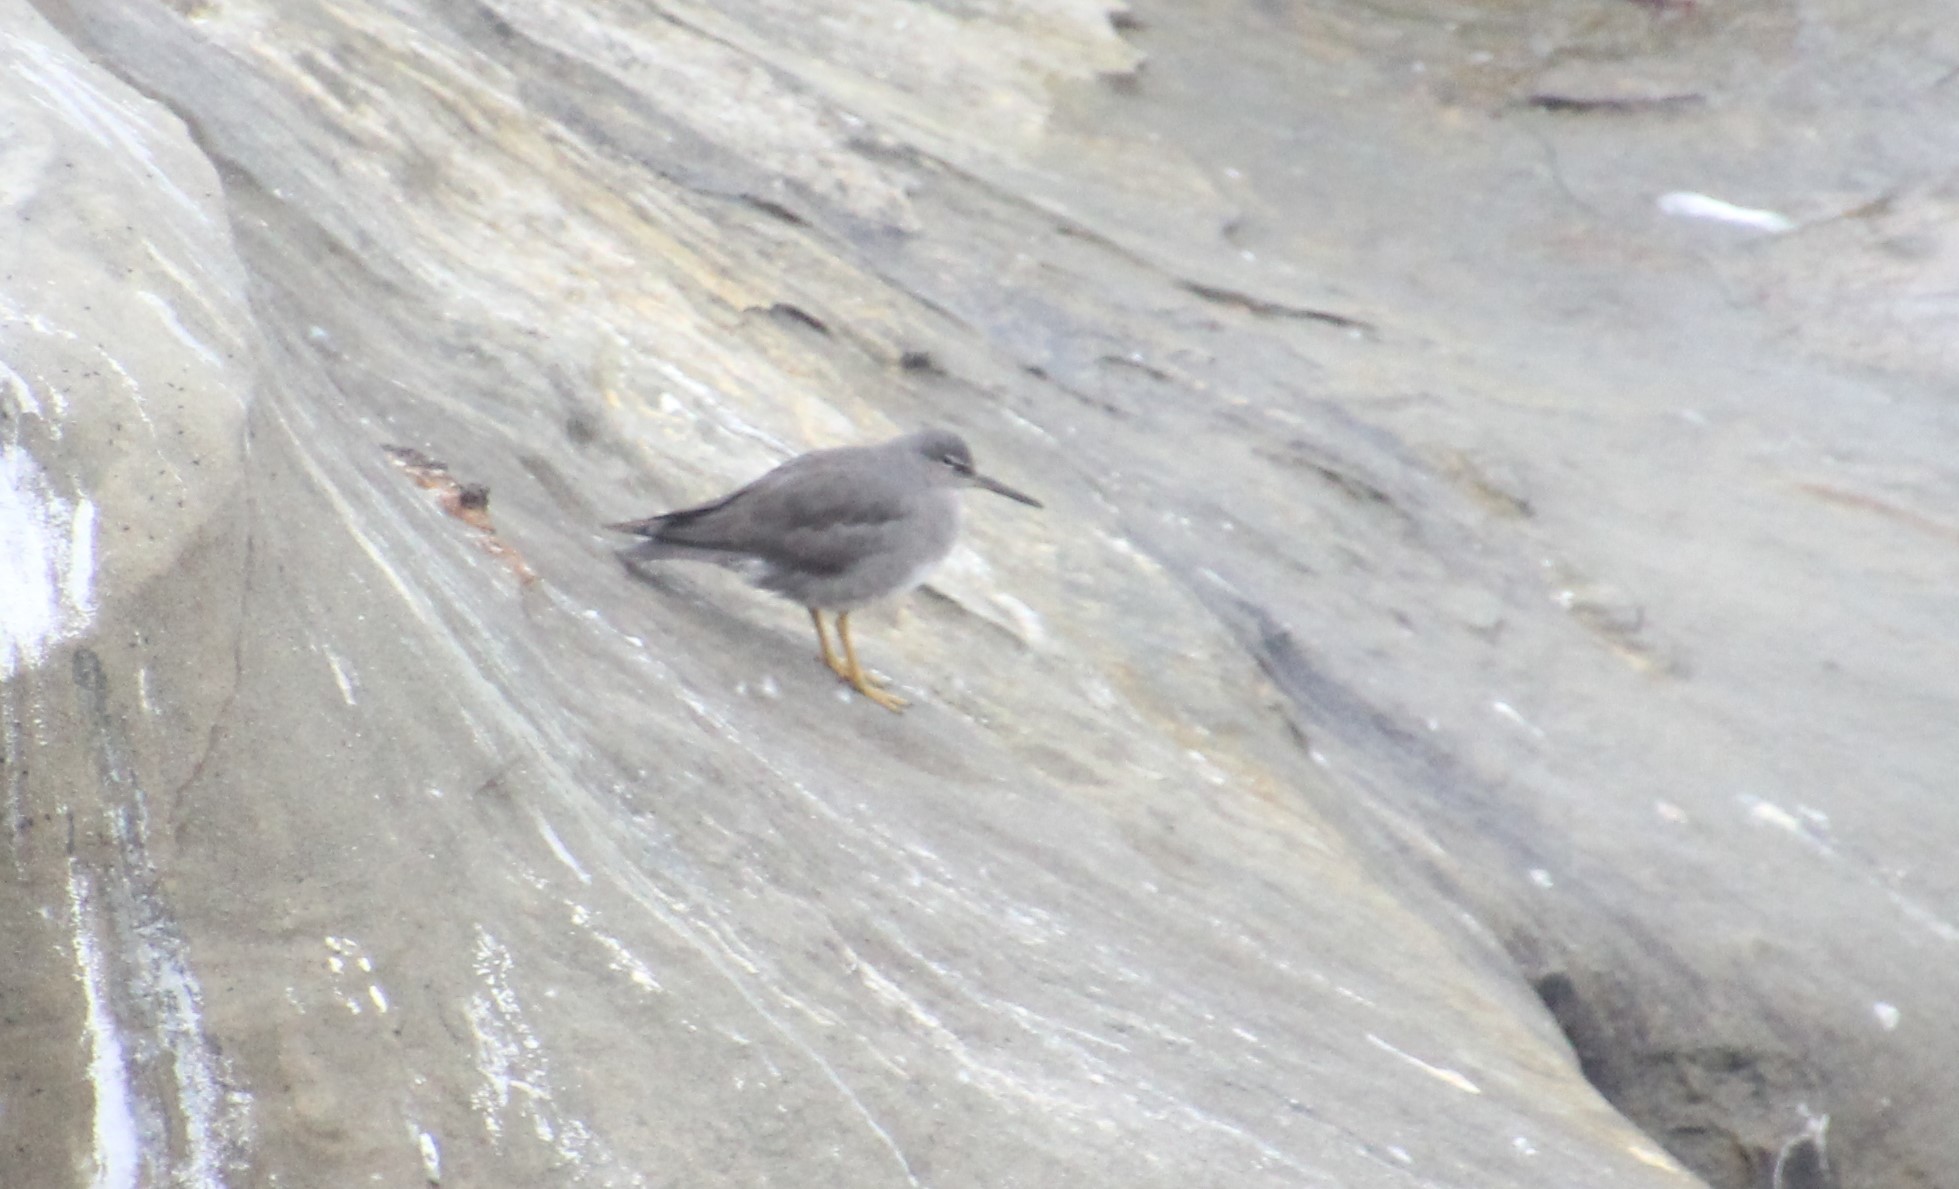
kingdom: Animalia
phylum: Chordata
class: Aves
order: Charadriiformes
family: Scolopacidae
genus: Tringa
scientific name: Tringa incana
